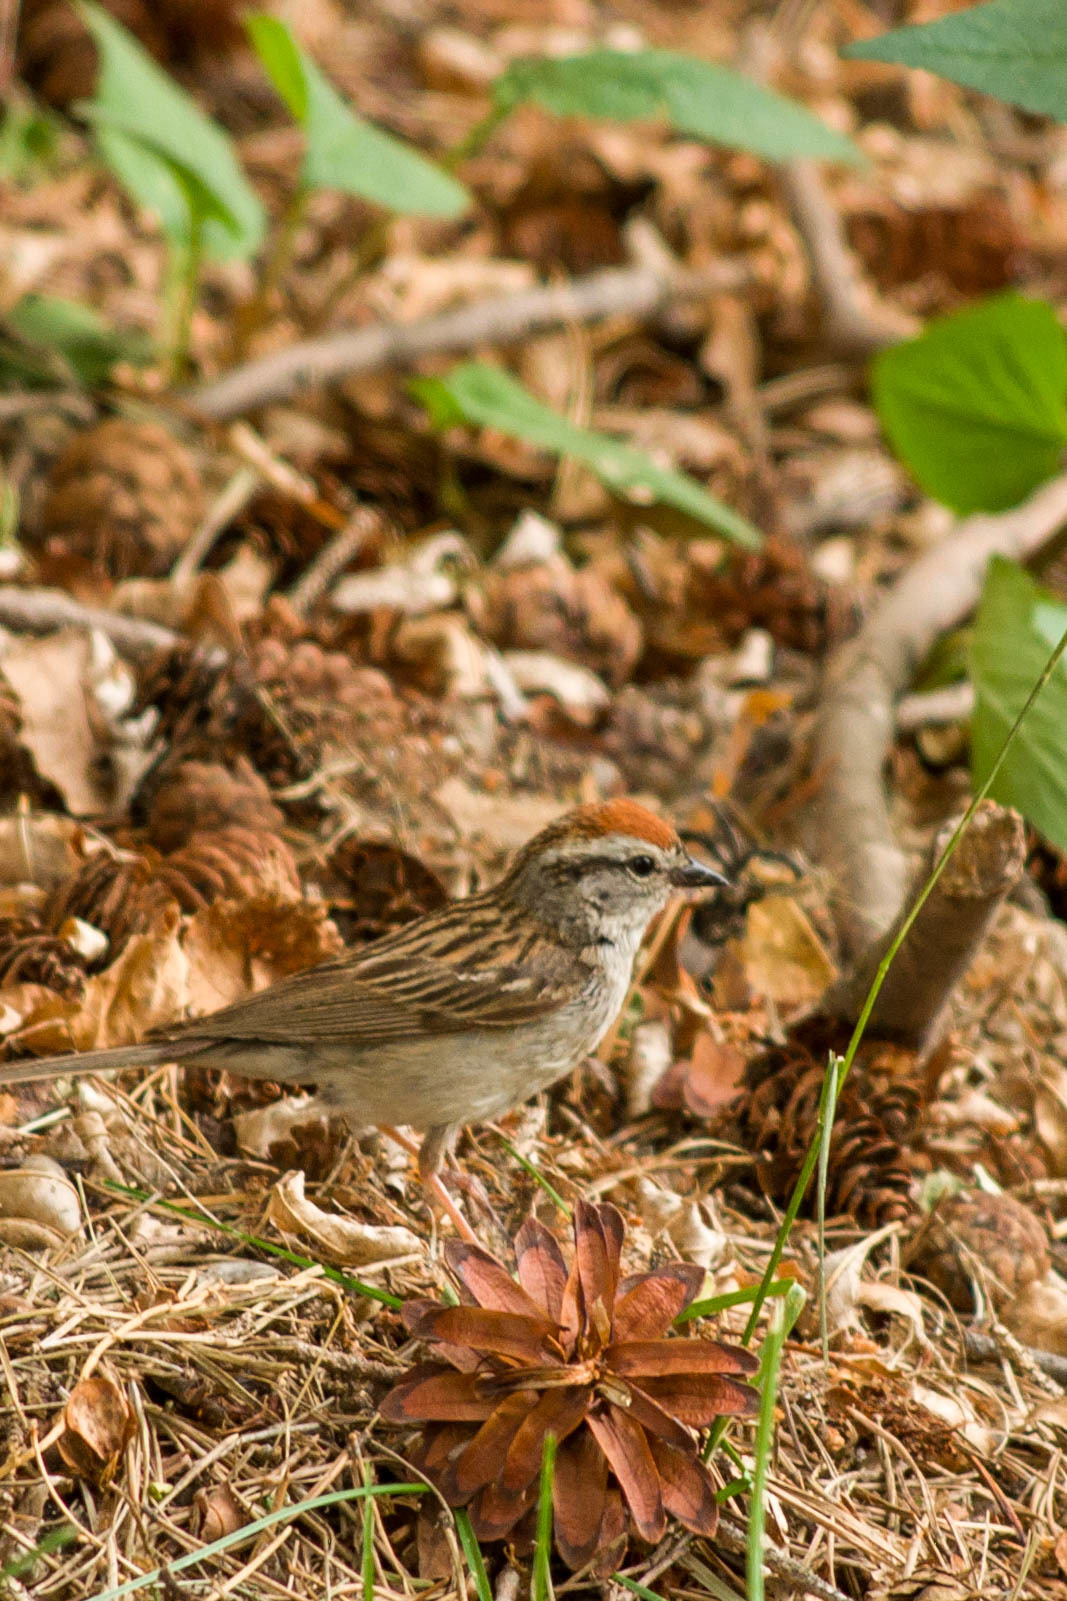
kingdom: Animalia
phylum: Chordata
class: Aves
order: Passeriformes
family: Passerellidae
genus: Spizella
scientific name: Spizella passerina
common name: Chipping sparrow
